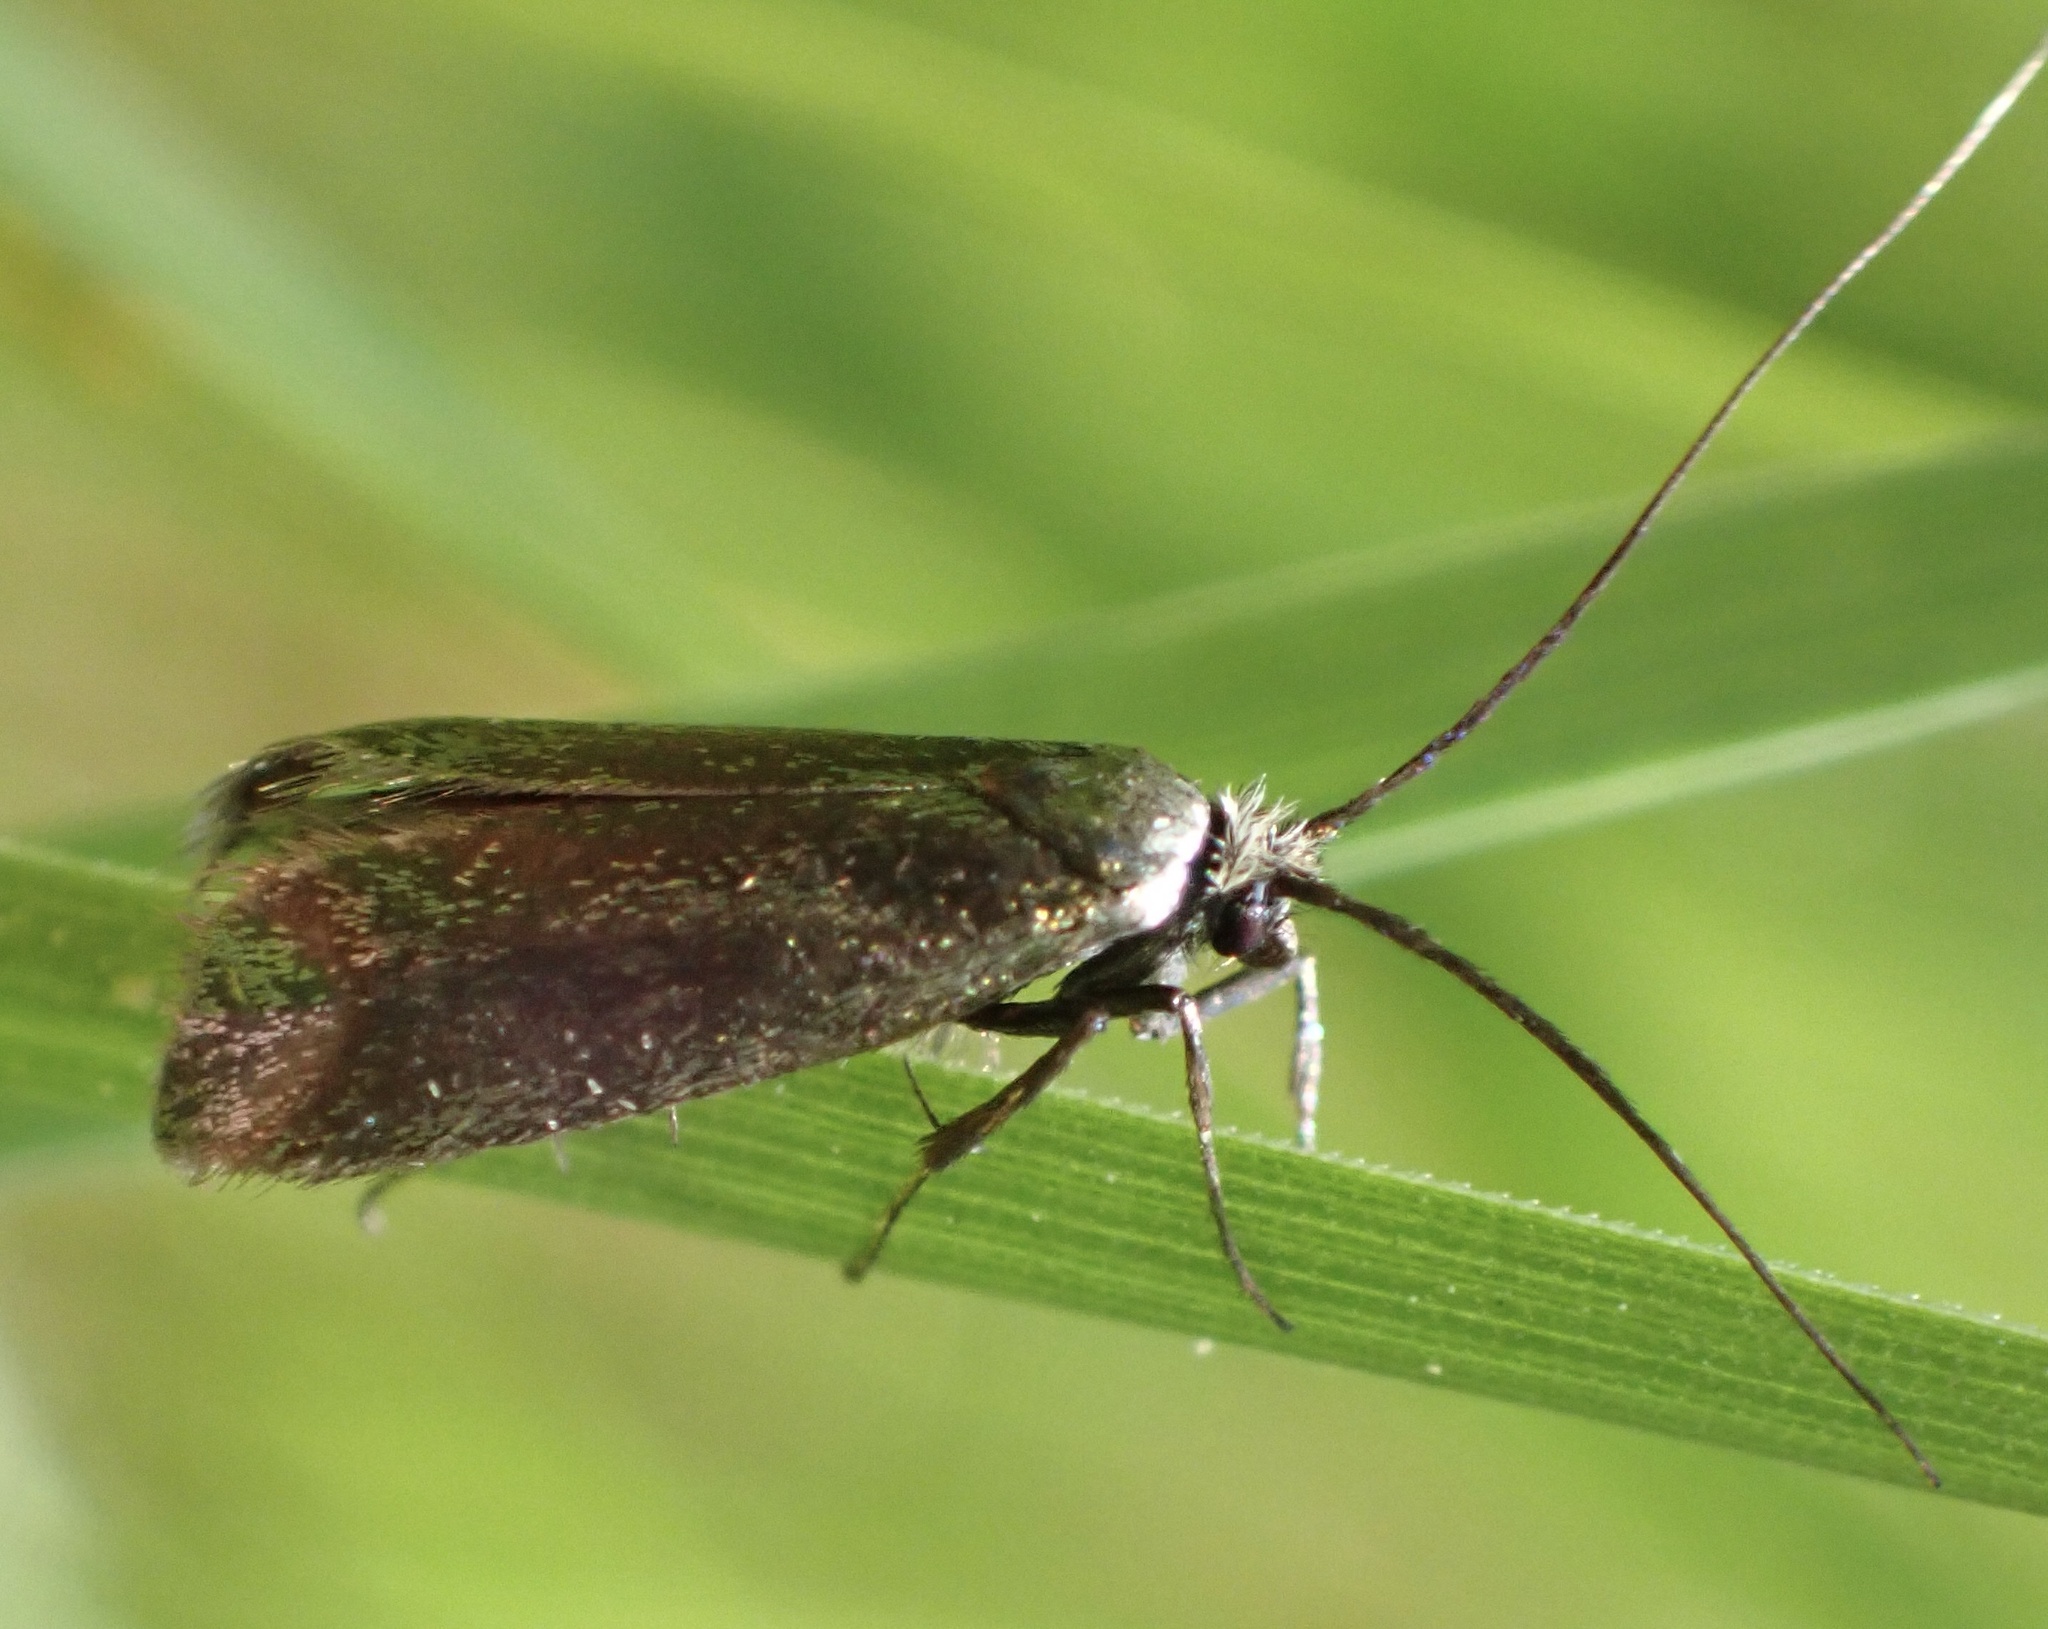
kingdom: Animalia
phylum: Arthropoda
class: Insecta
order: Lepidoptera
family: Adelidae
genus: Adela
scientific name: Adela viridella
